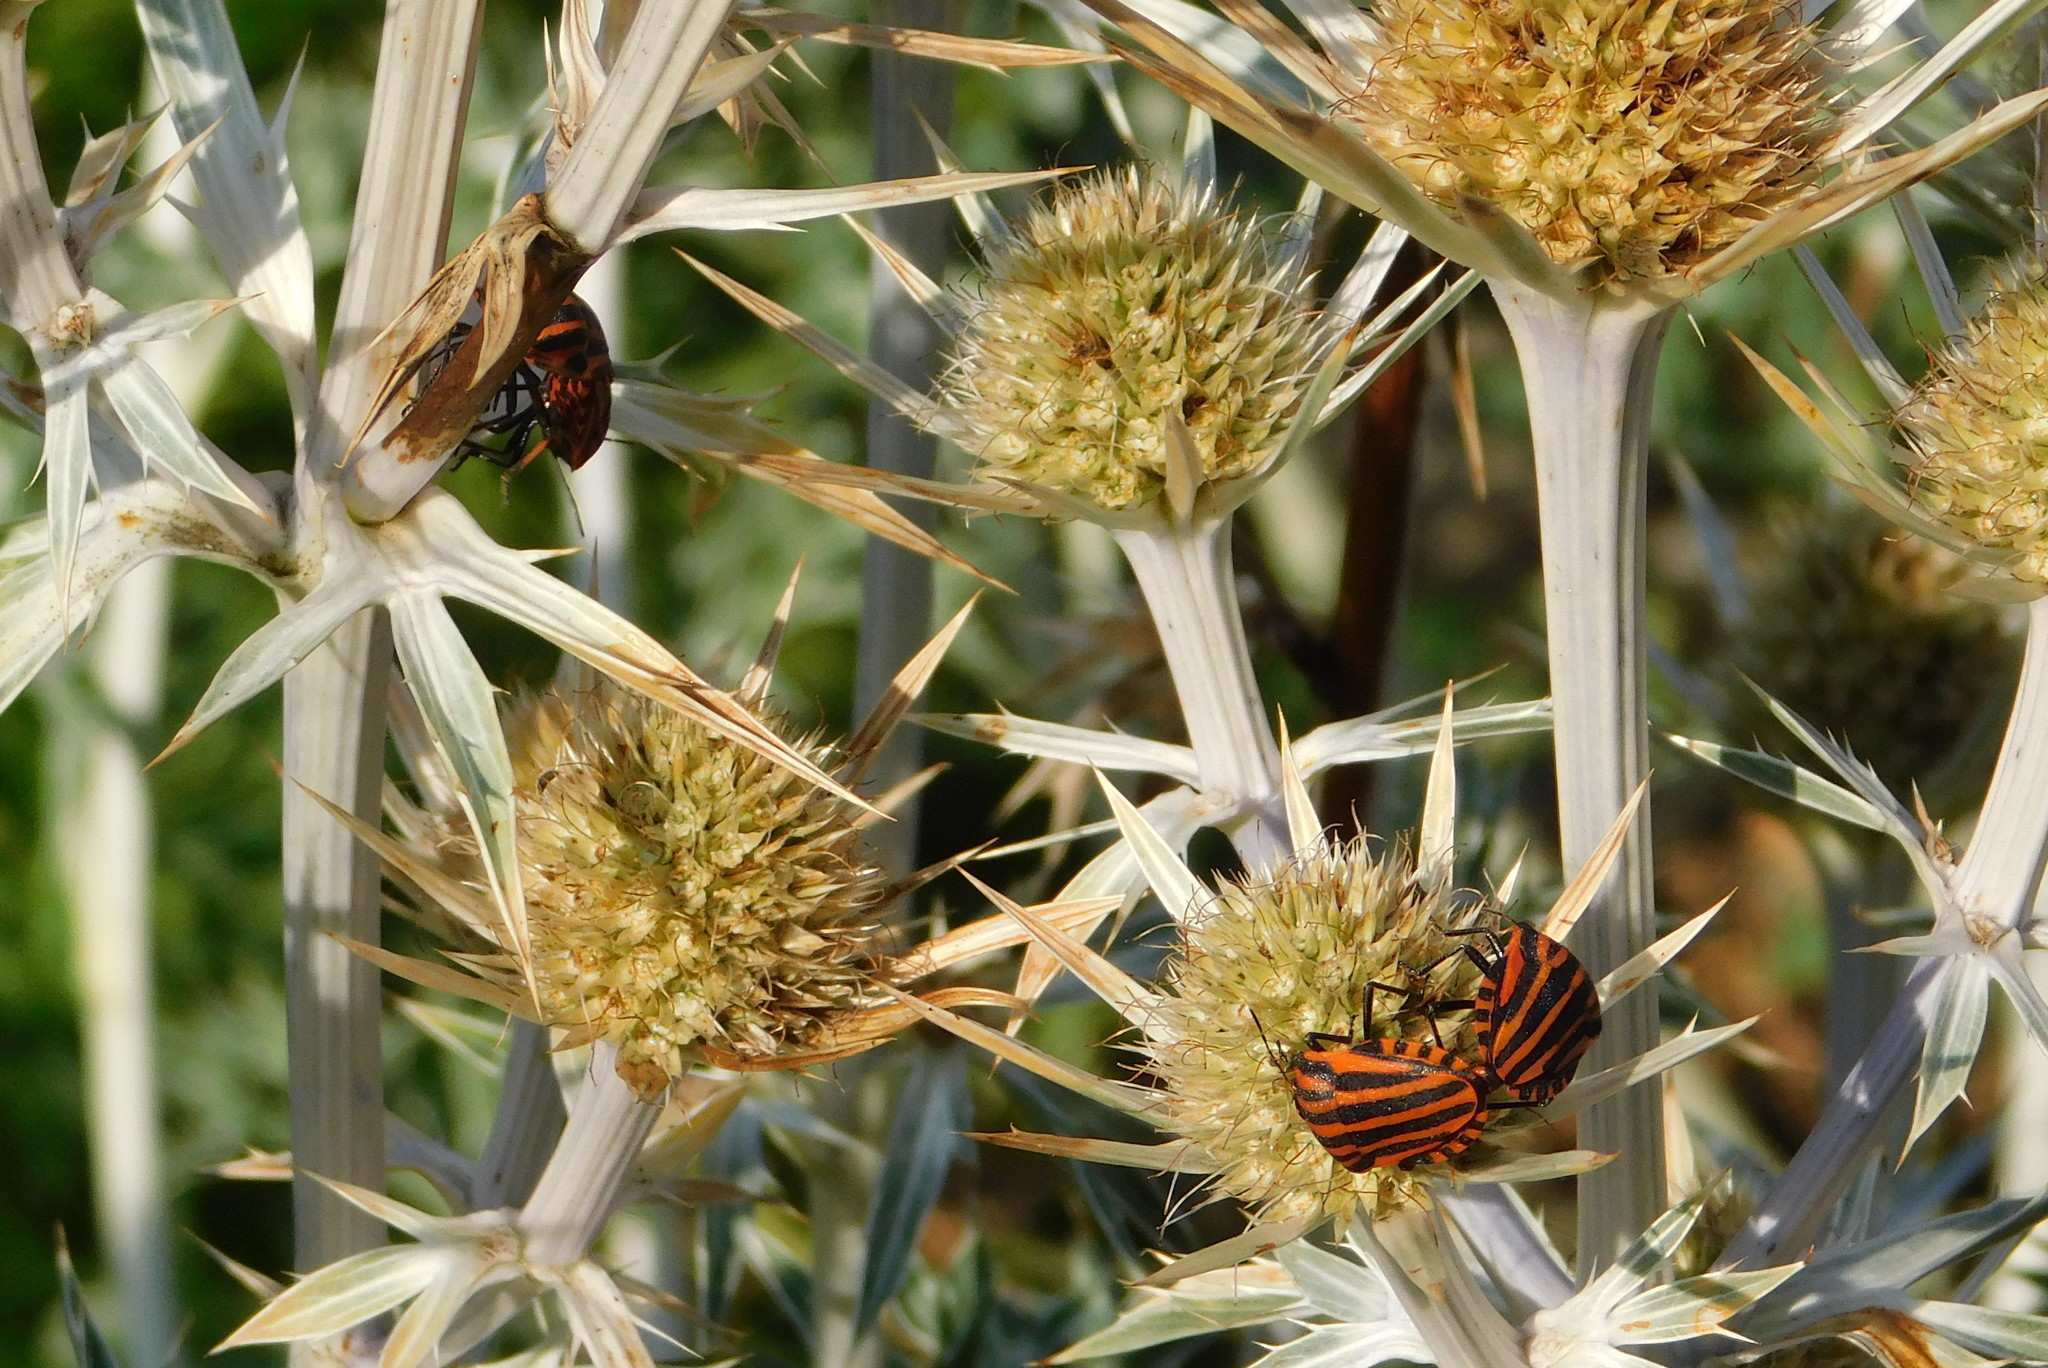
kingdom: Animalia
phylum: Arthropoda
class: Insecta
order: Hemiptera
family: Pentatomidae
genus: Graphosoma
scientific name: Graphosoma italicum
